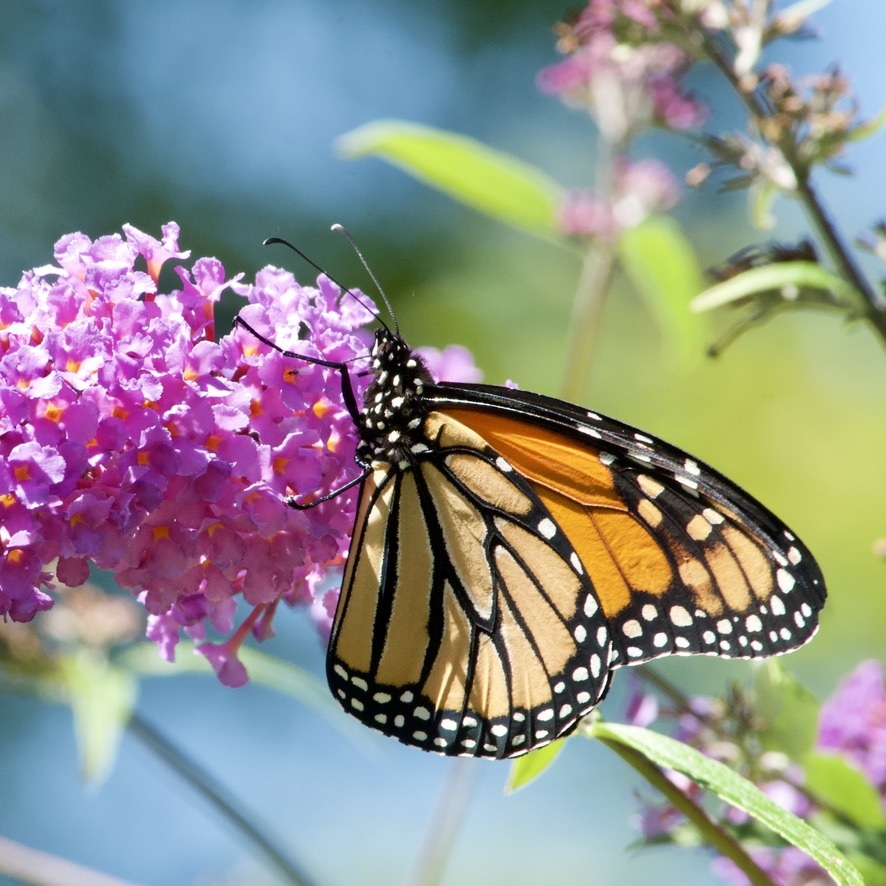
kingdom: Animalia
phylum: Arthropoda
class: Insecta
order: Lepidoptera
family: Nymphalidae
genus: Danaus
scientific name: Danaus plexippus
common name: Monarch
